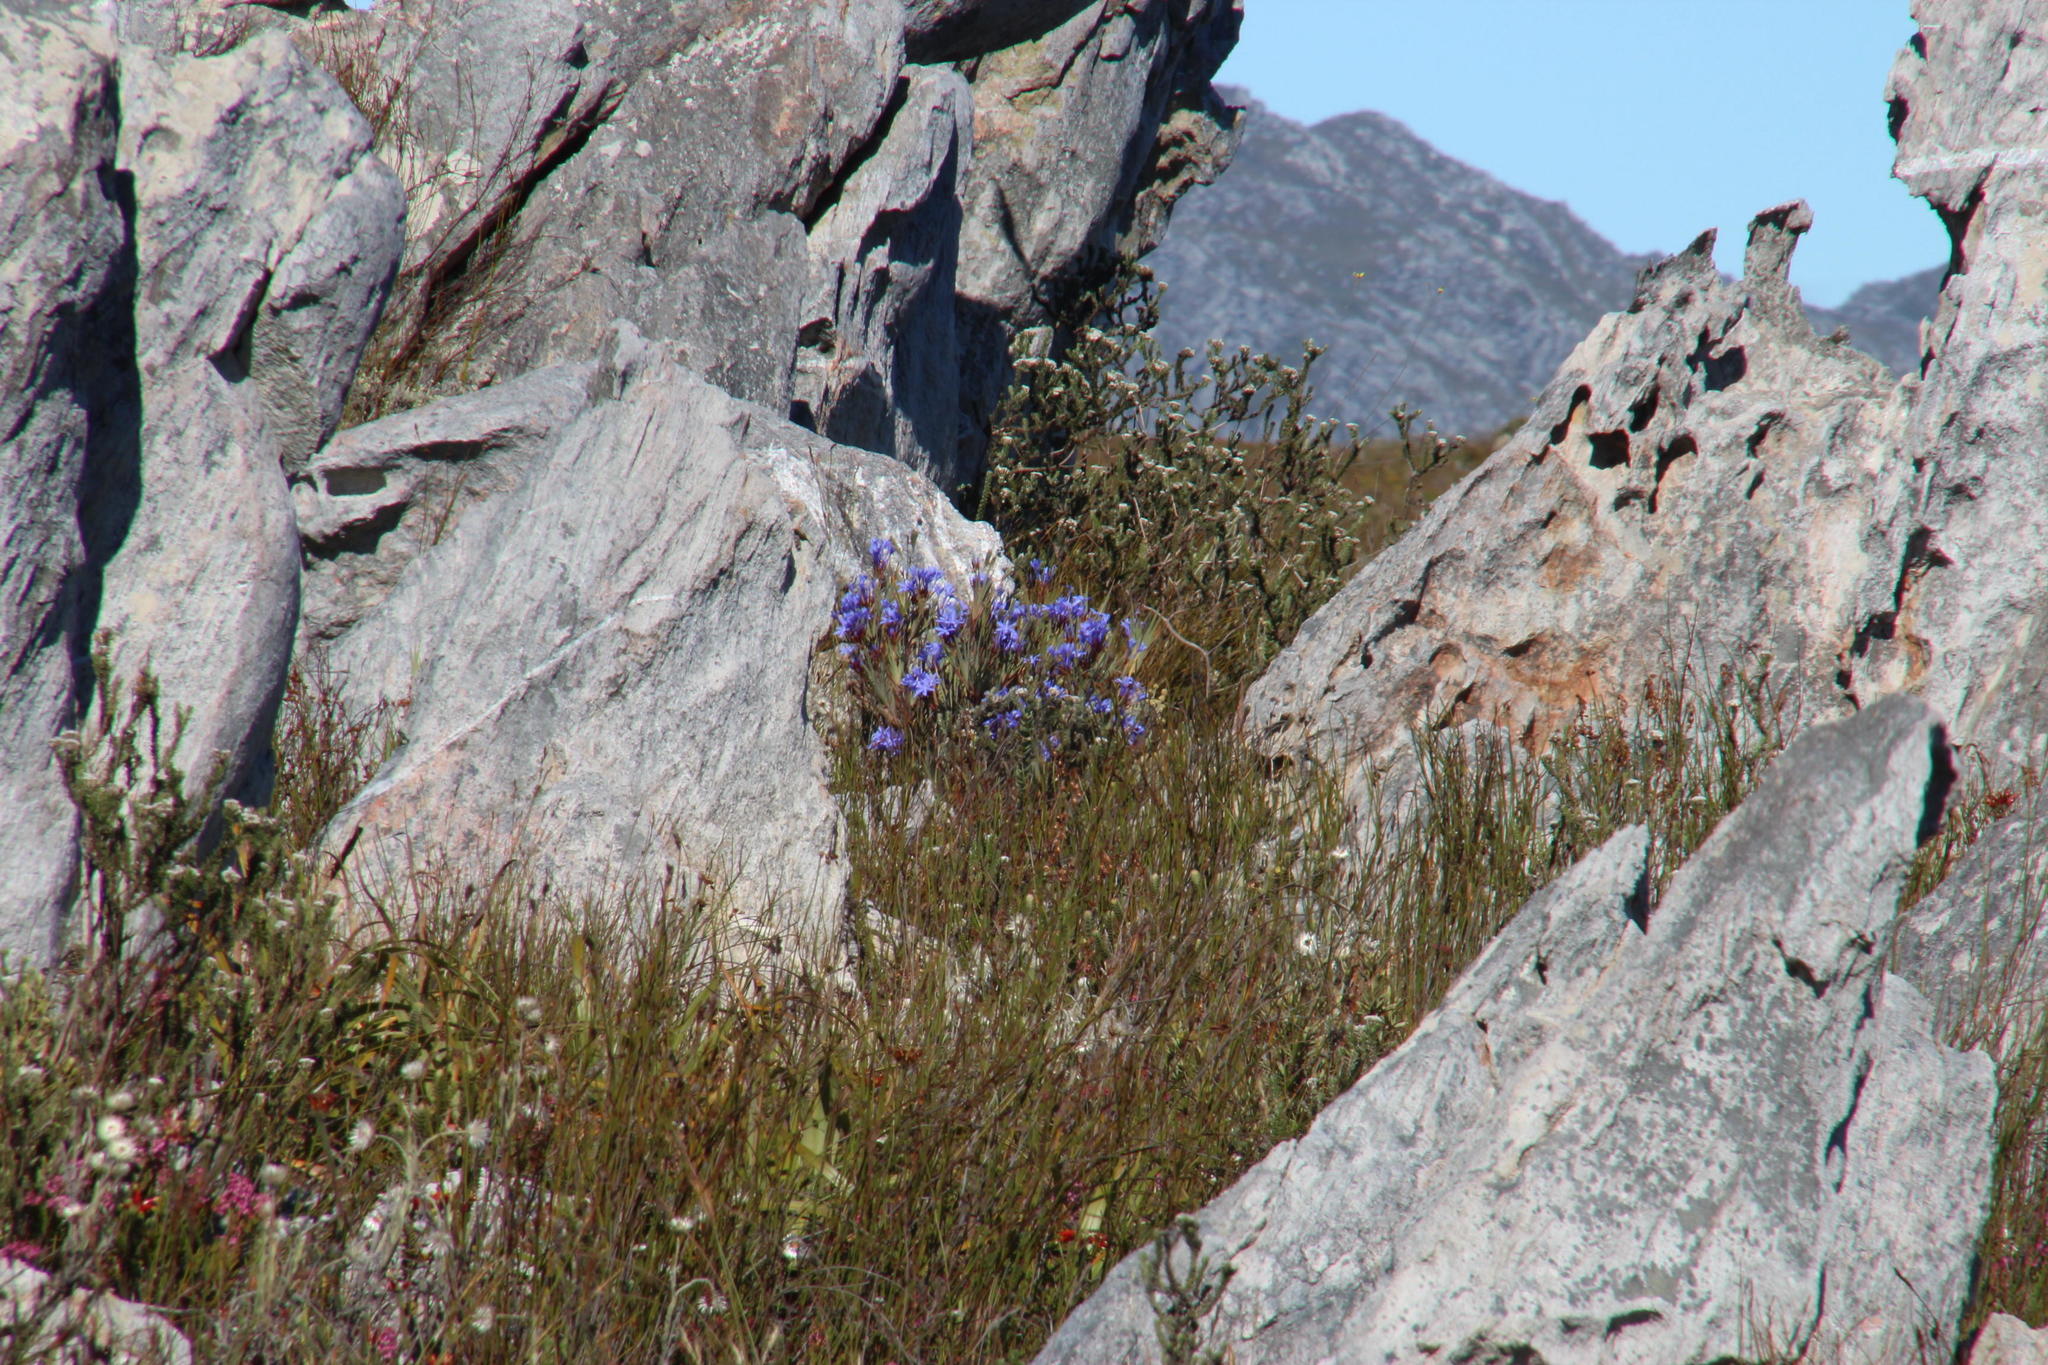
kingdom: Plantae
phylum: Tracheophyta
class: Liliopsida
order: Asparagales
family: Iridaceae
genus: Nivenia
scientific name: Nivenia stokoei
